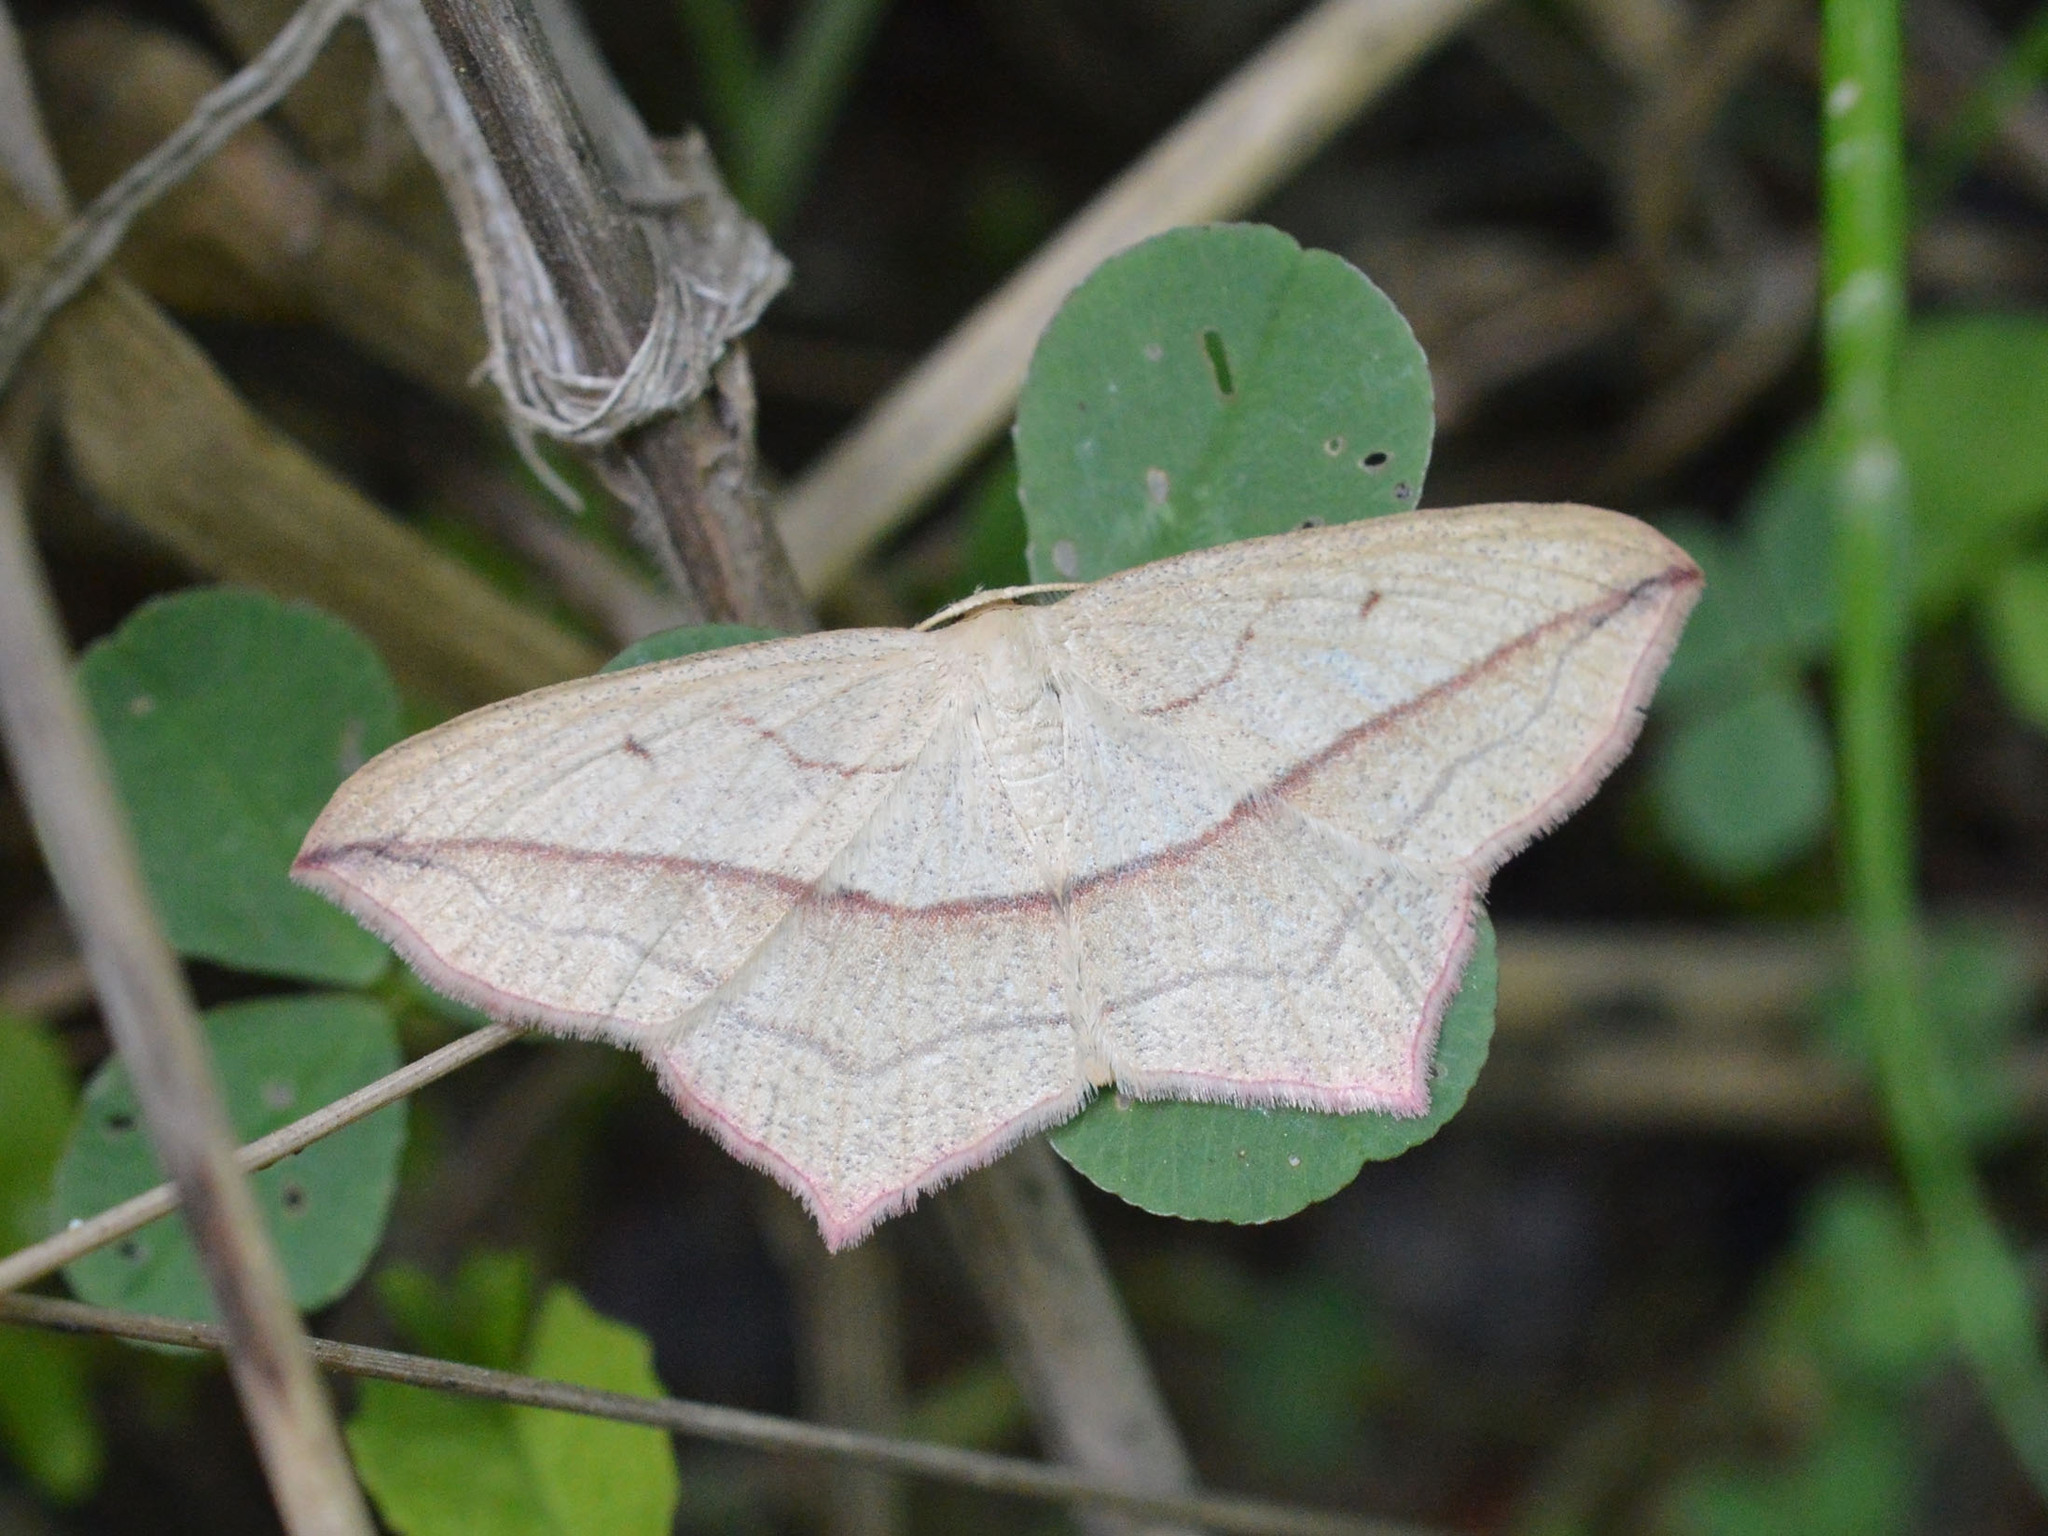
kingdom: Animalia
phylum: Arthropoda
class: Insecta
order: Lepidoptera
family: Geometridae
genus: Timandra
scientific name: Timandra comae
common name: Blood-vein
